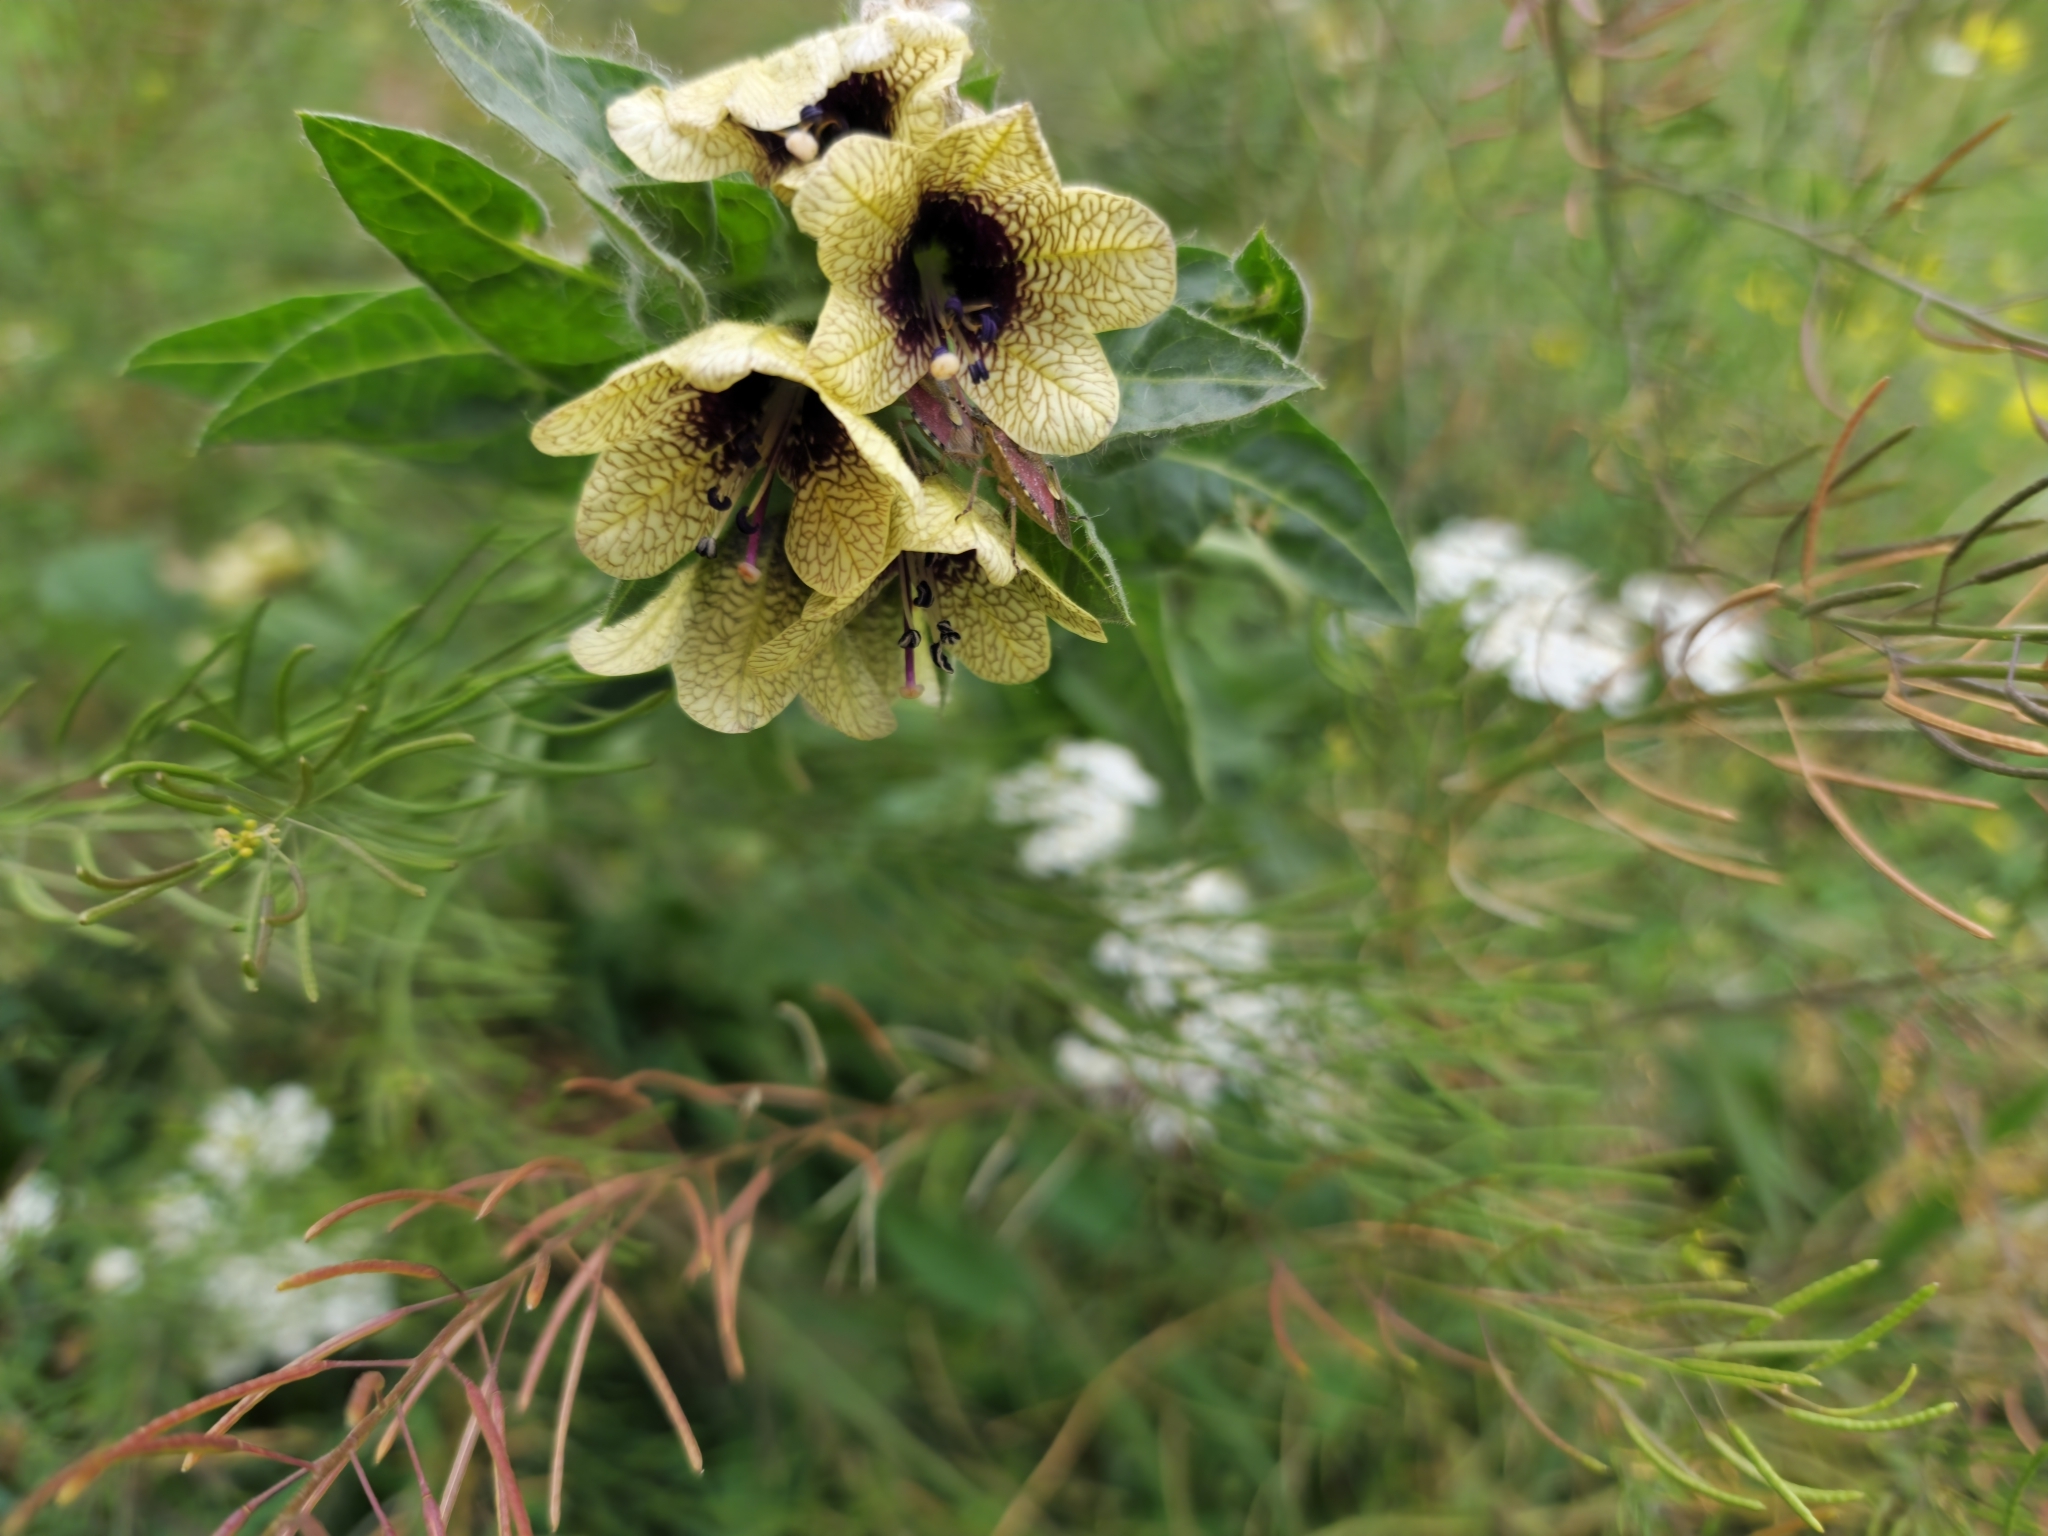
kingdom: Plantae
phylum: Tracheophyta
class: Magnoliopsida
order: Solanales
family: Solanaceae
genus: Hyoscyamus
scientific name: Hyoscyamus niger
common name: Henbane
